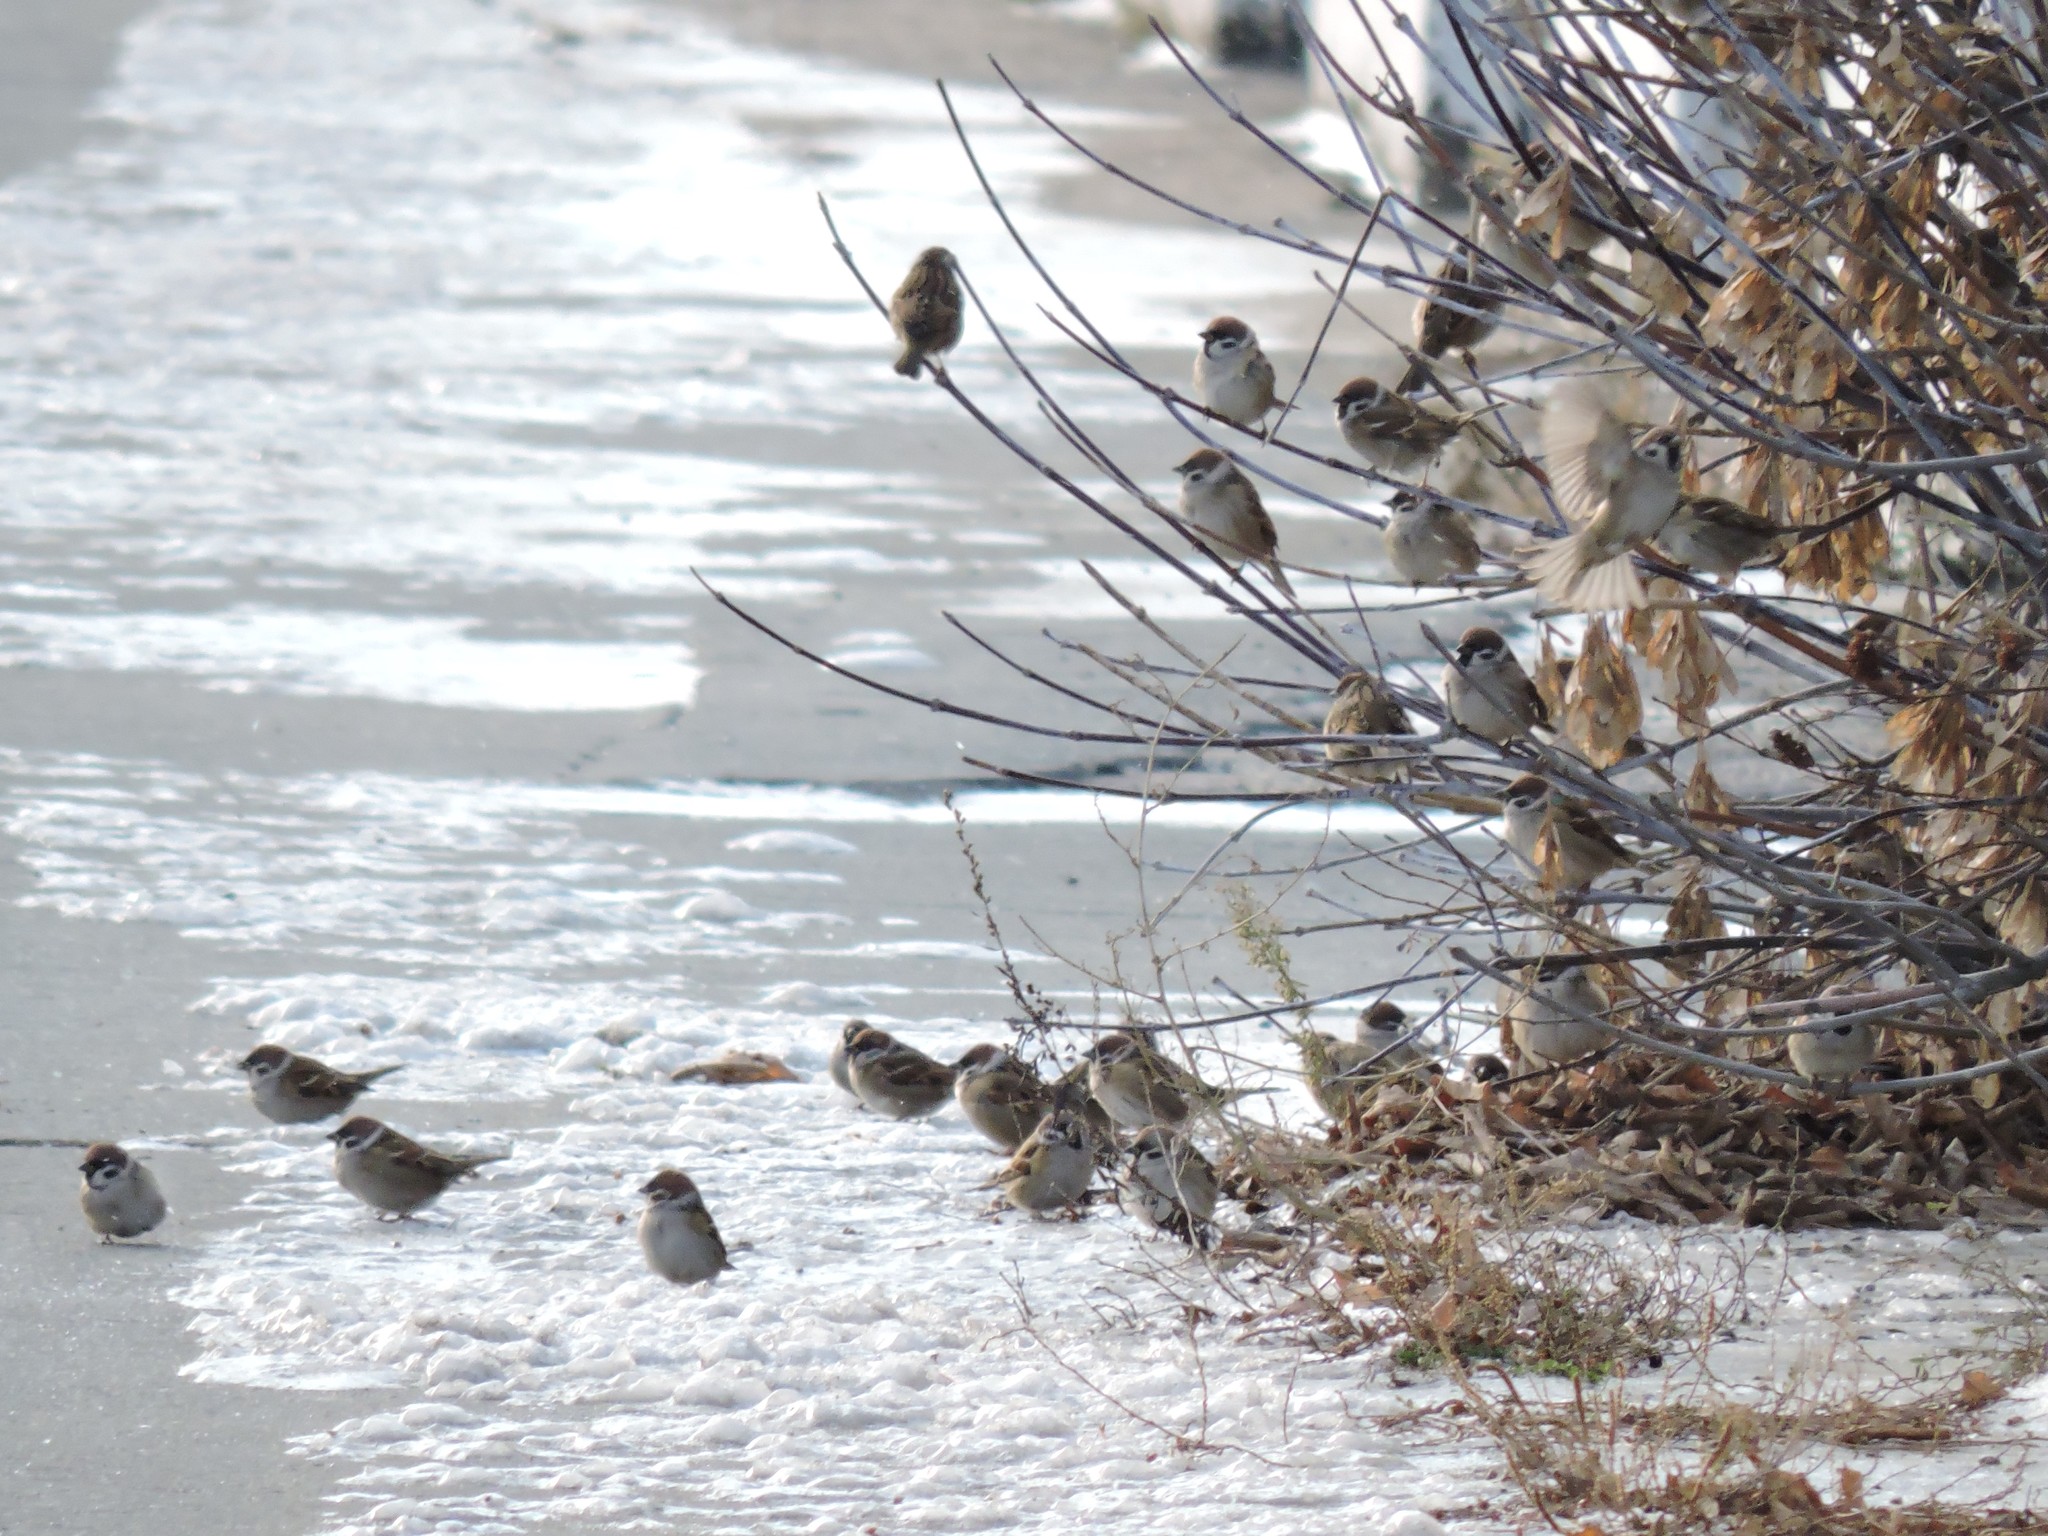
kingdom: Animalia
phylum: Chordata
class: Aves
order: Passeriformes
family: Passeridae
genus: Passer
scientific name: Passer montanus
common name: Eurasian tree sparrow
